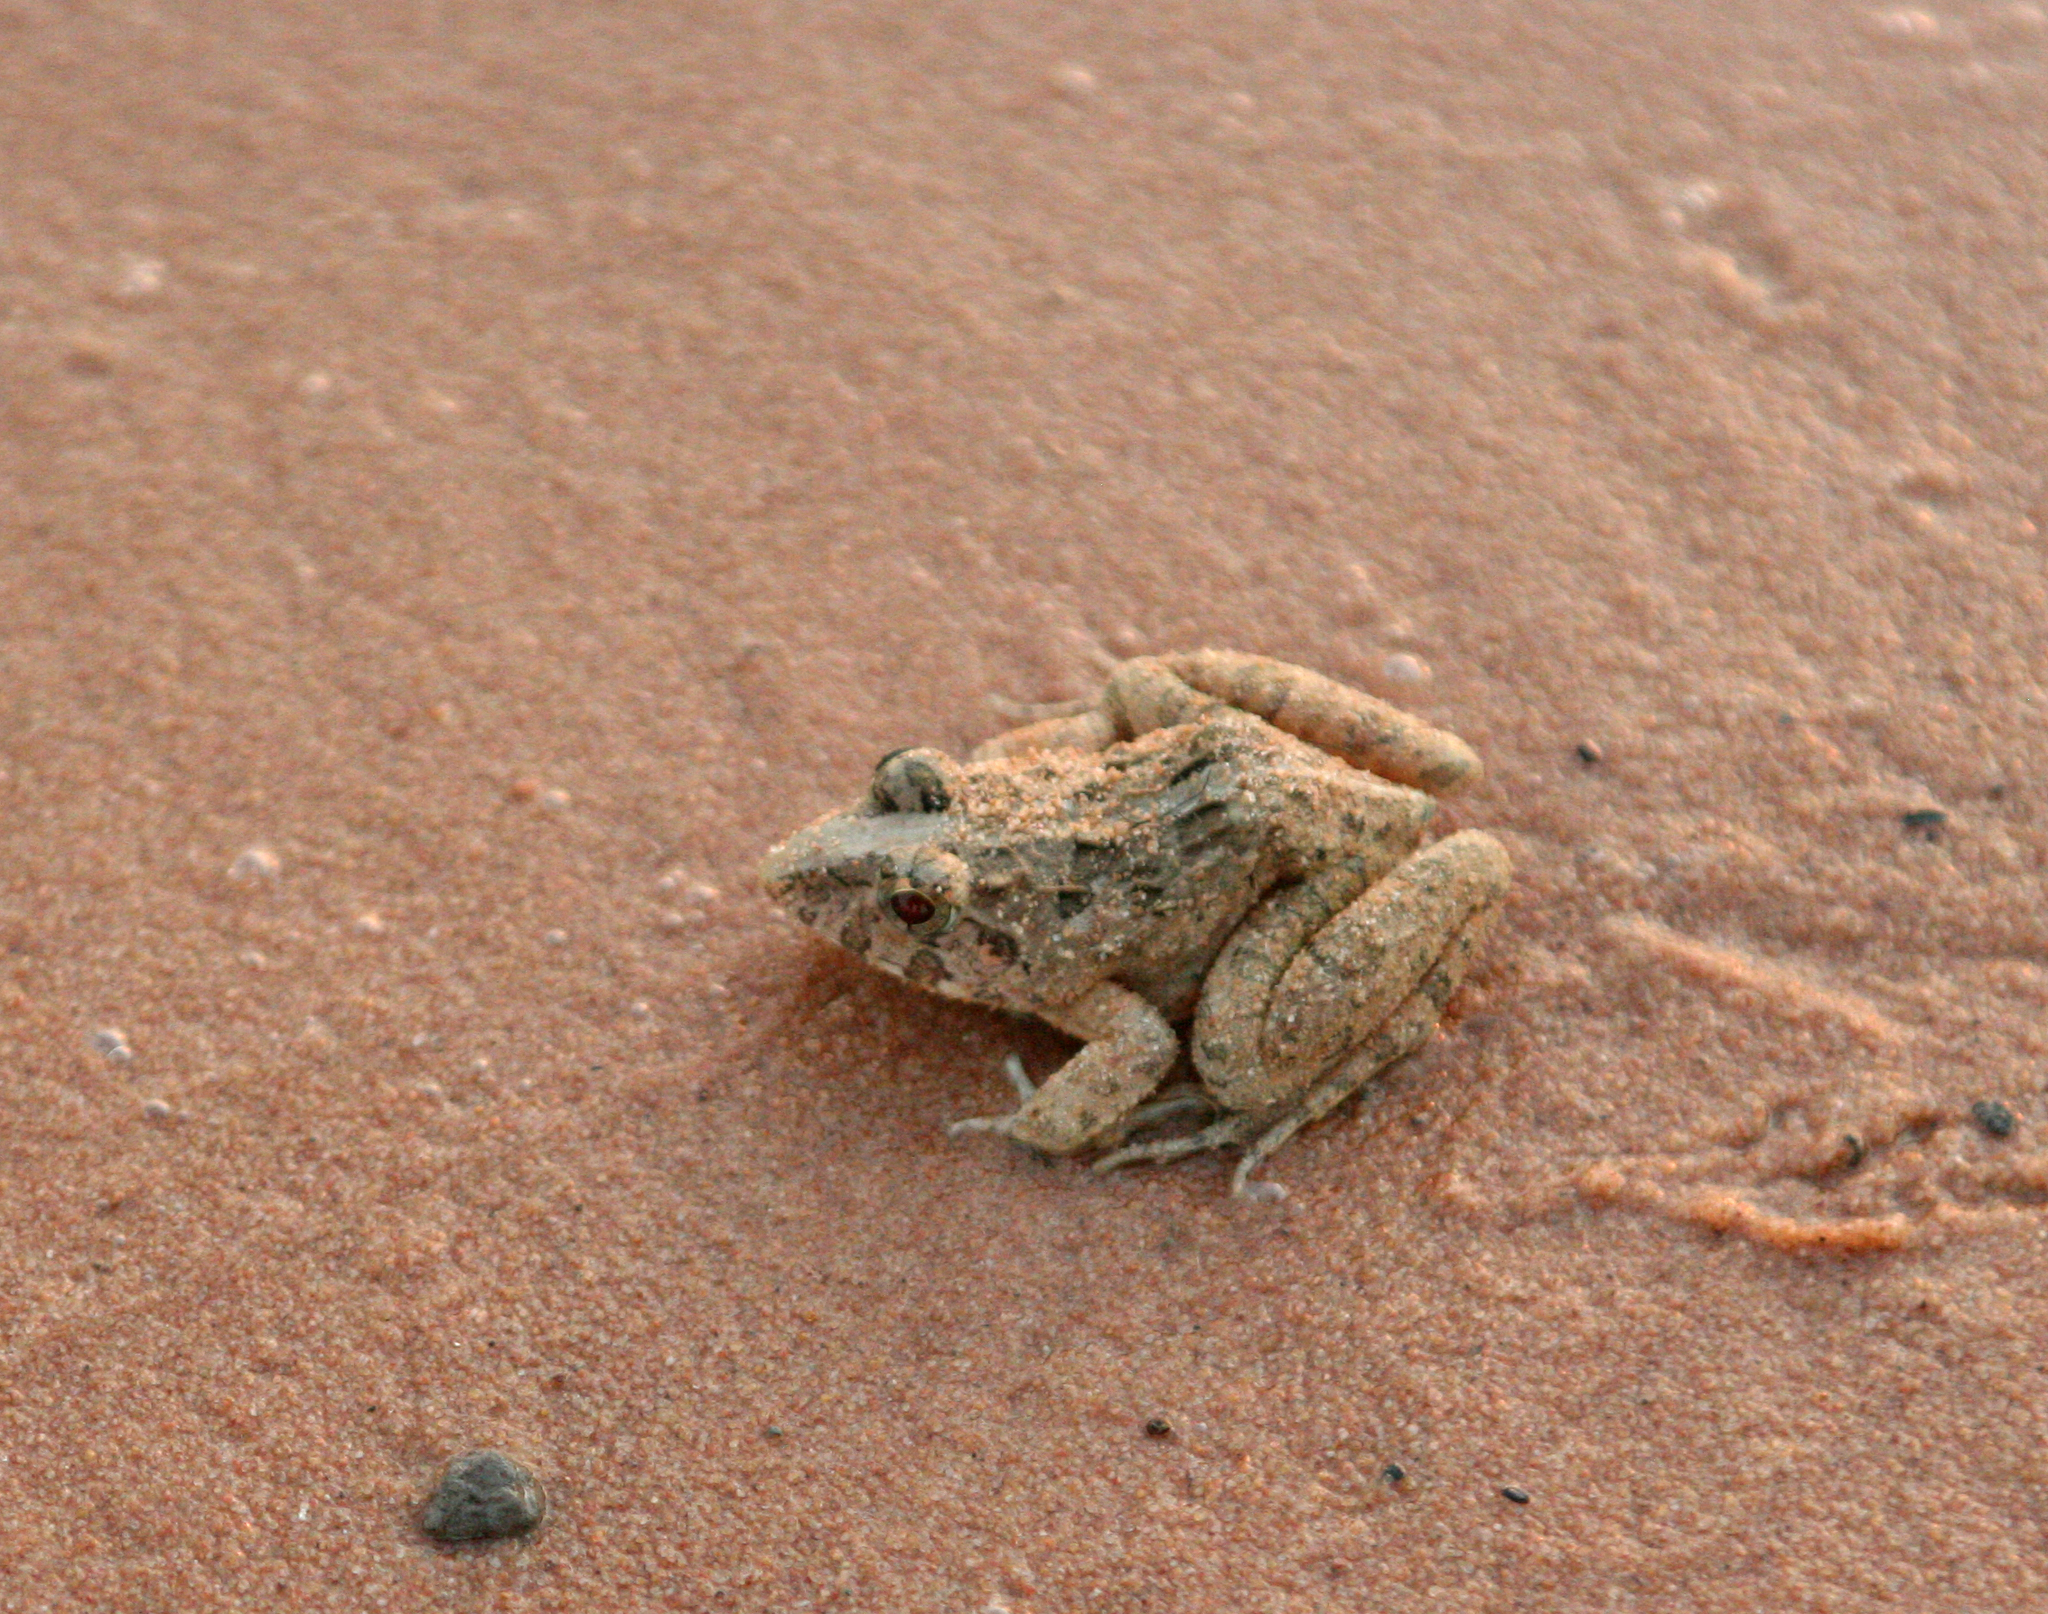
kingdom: Animalia
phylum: Chordata
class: Amphibia
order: Anura
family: Dicroglossidae
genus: Fejervarya
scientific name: Fejervarya limnocharis
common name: Asian grass frog/common pond frog/field frog/grass frog/indian rice frog
